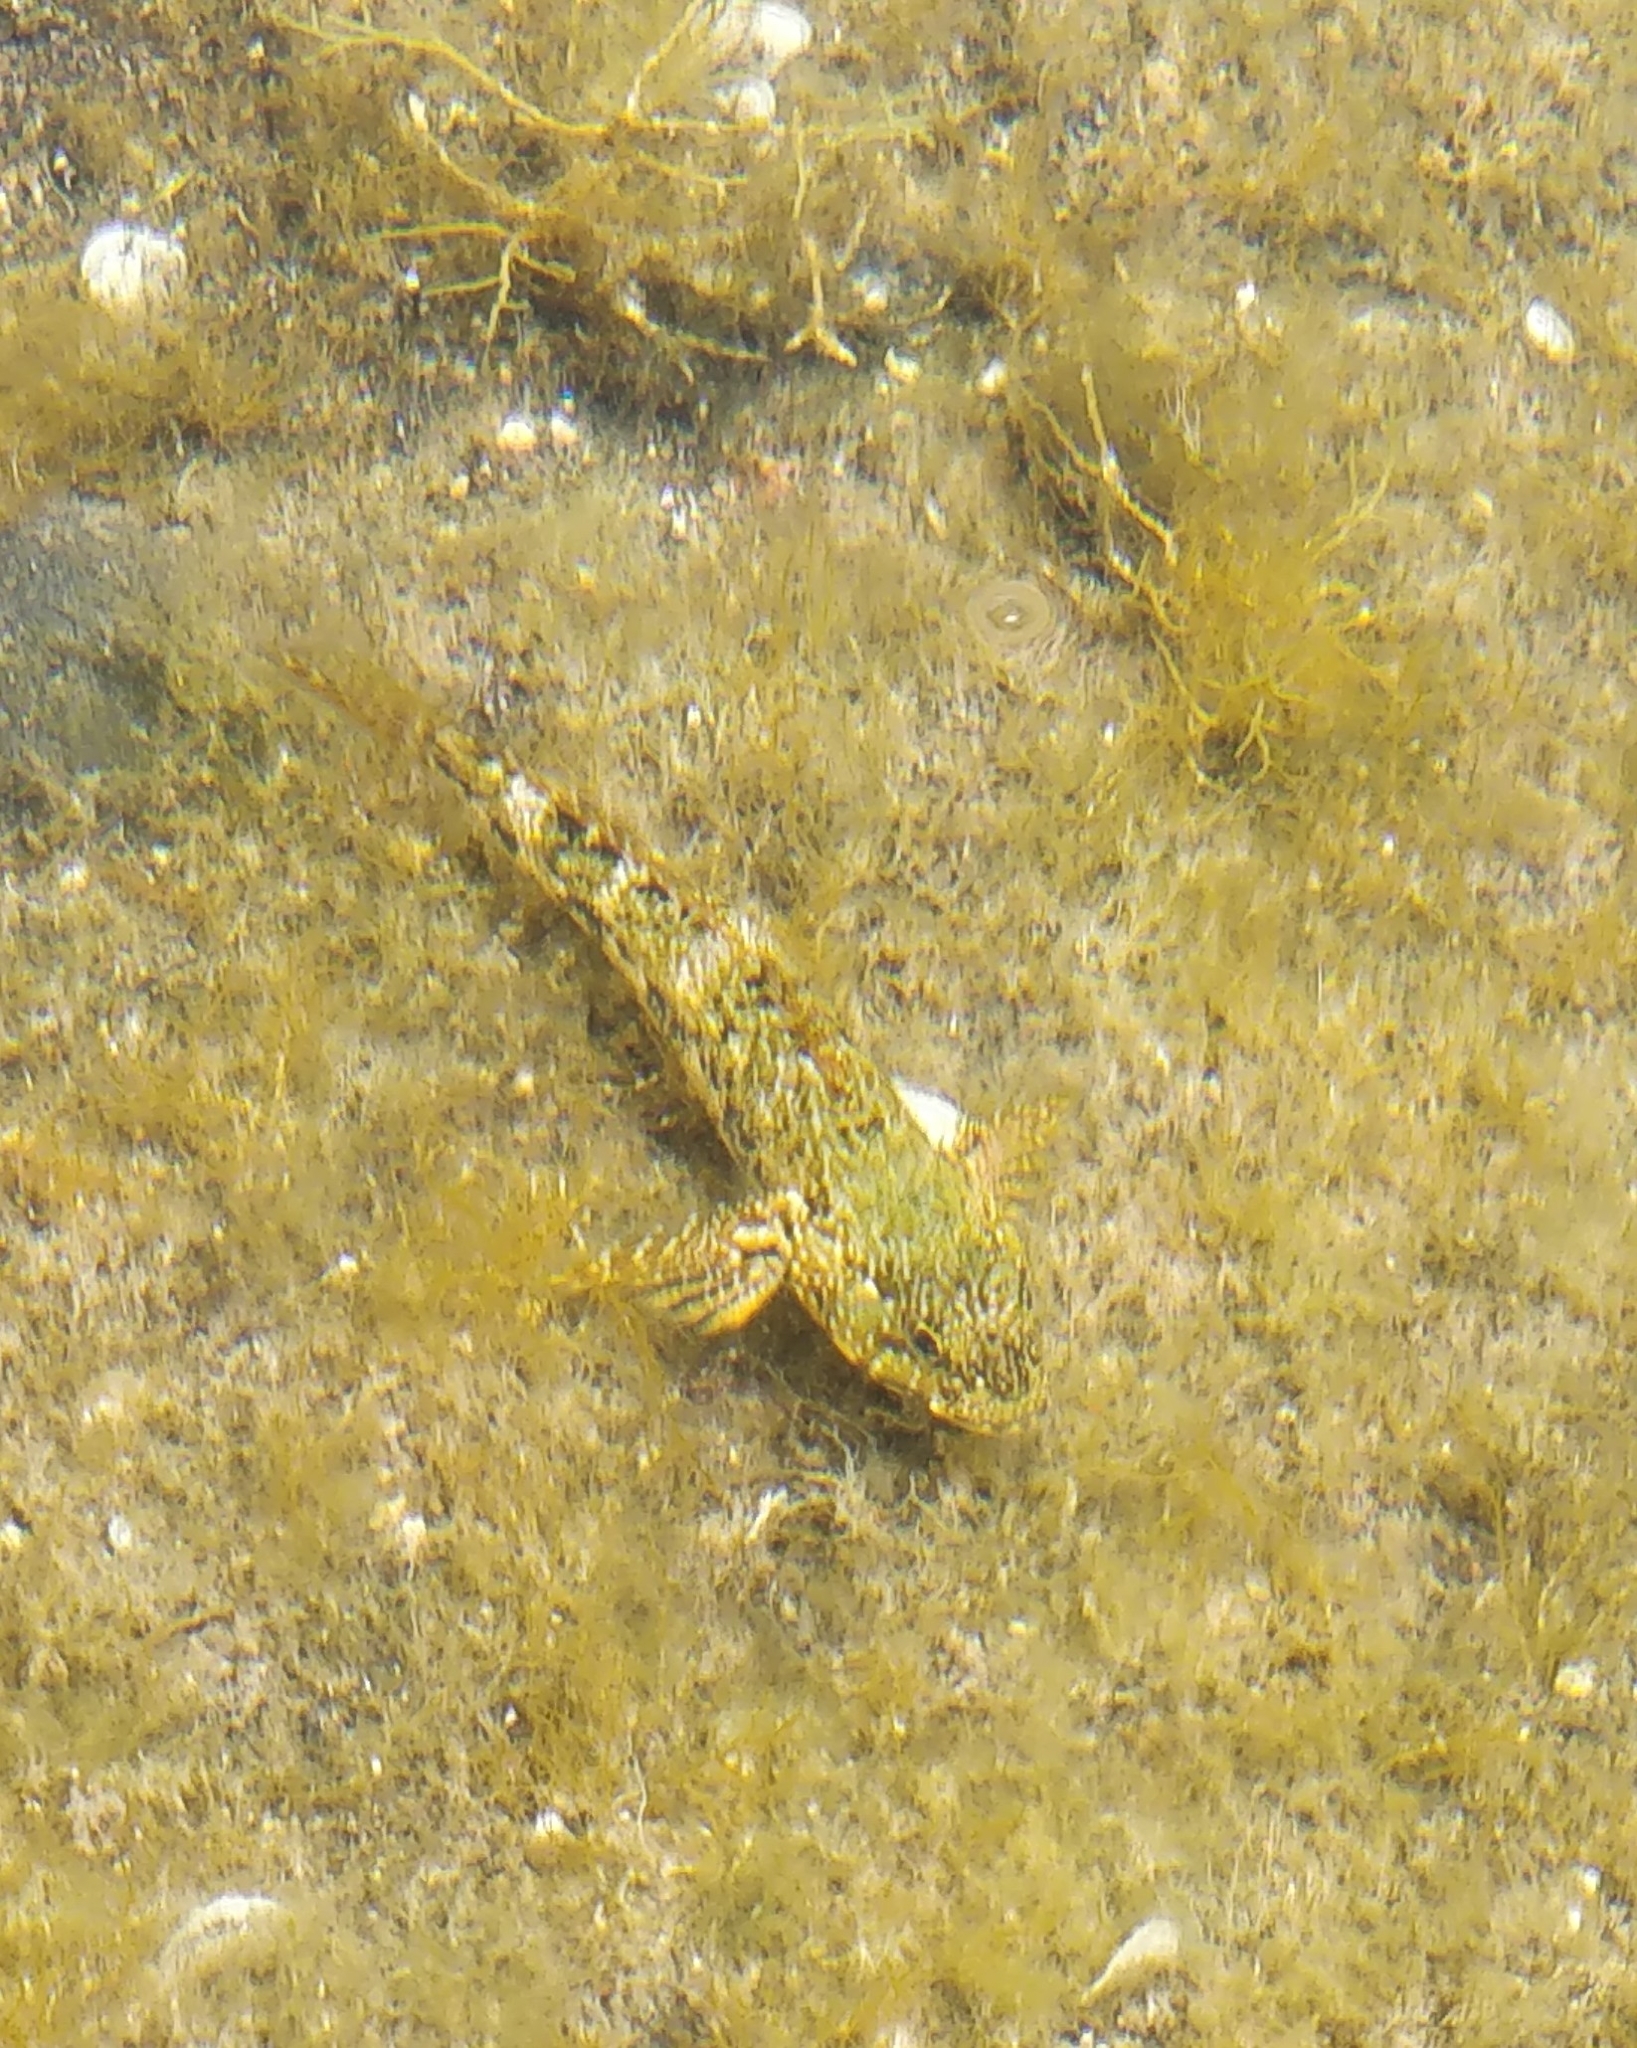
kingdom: Animalia
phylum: Chordata
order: Perciformes
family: Gobiidae
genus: Mauligobius
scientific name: Mauligobius maderensis
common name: Rock goby
